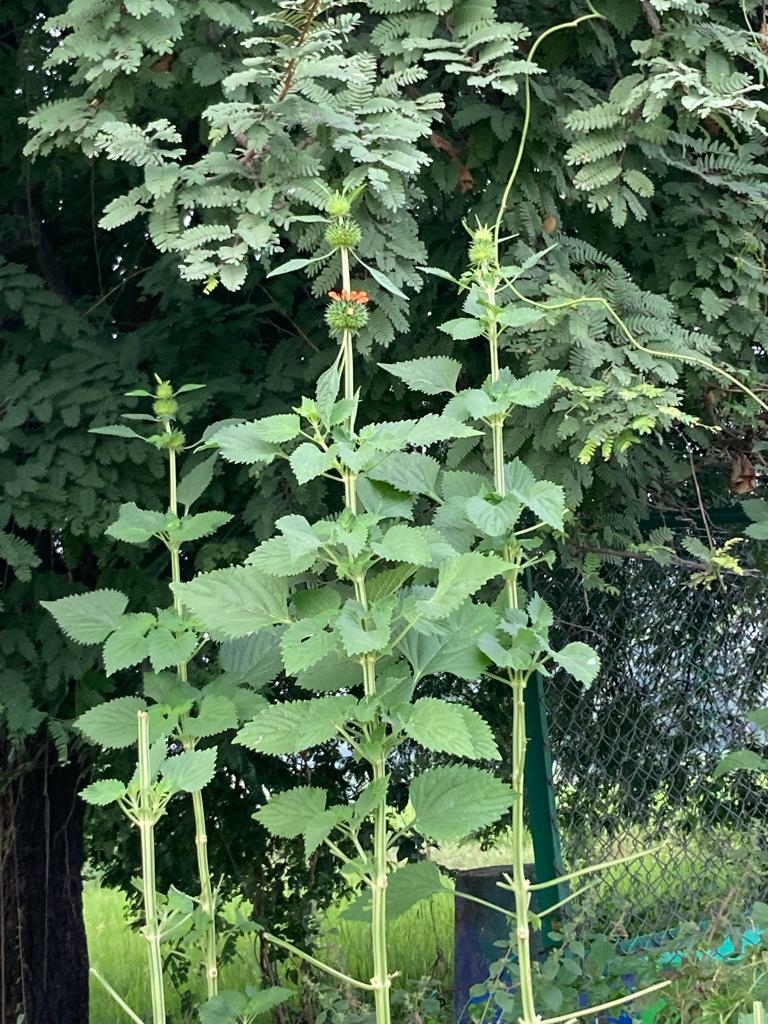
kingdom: Plantae
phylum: Tracheophyta
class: Magnoliopsida
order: Lamiales
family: Lamiaceae
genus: Leonotis
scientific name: Leonotis nepetifolia
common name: Christmas candlestick
